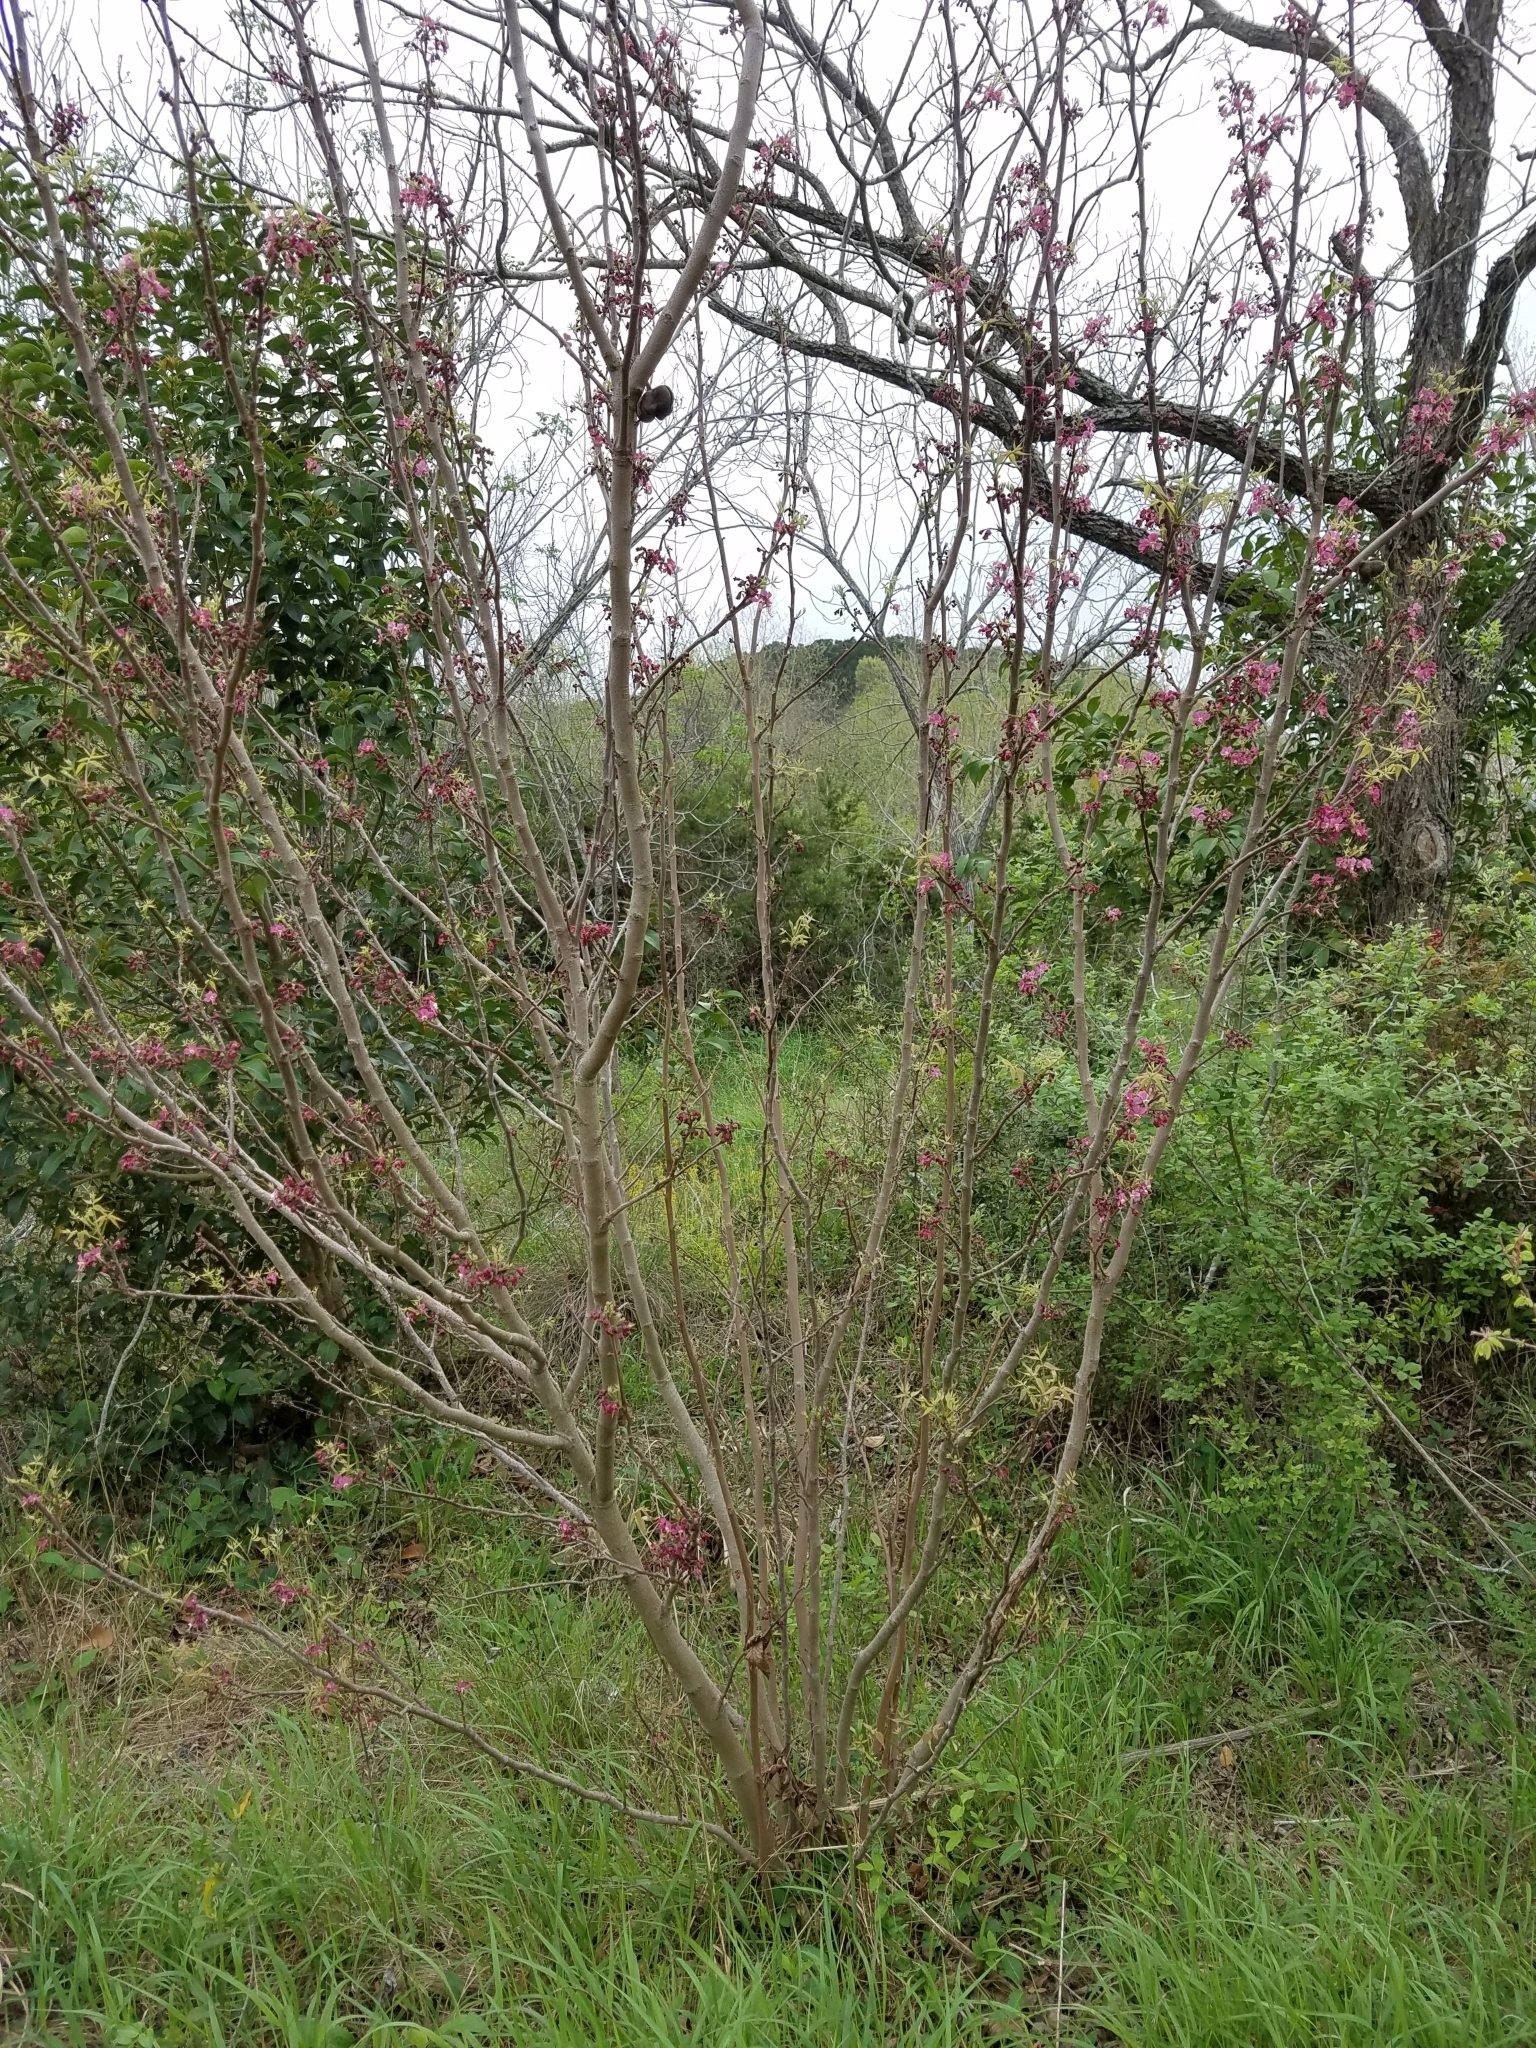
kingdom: Plantae
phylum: Tracheophyta
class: Magnoliopsida
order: Sapindales
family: Sapindaceae
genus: Ungnadia
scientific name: Ungnadia speciosa
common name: Texas-buckeye
